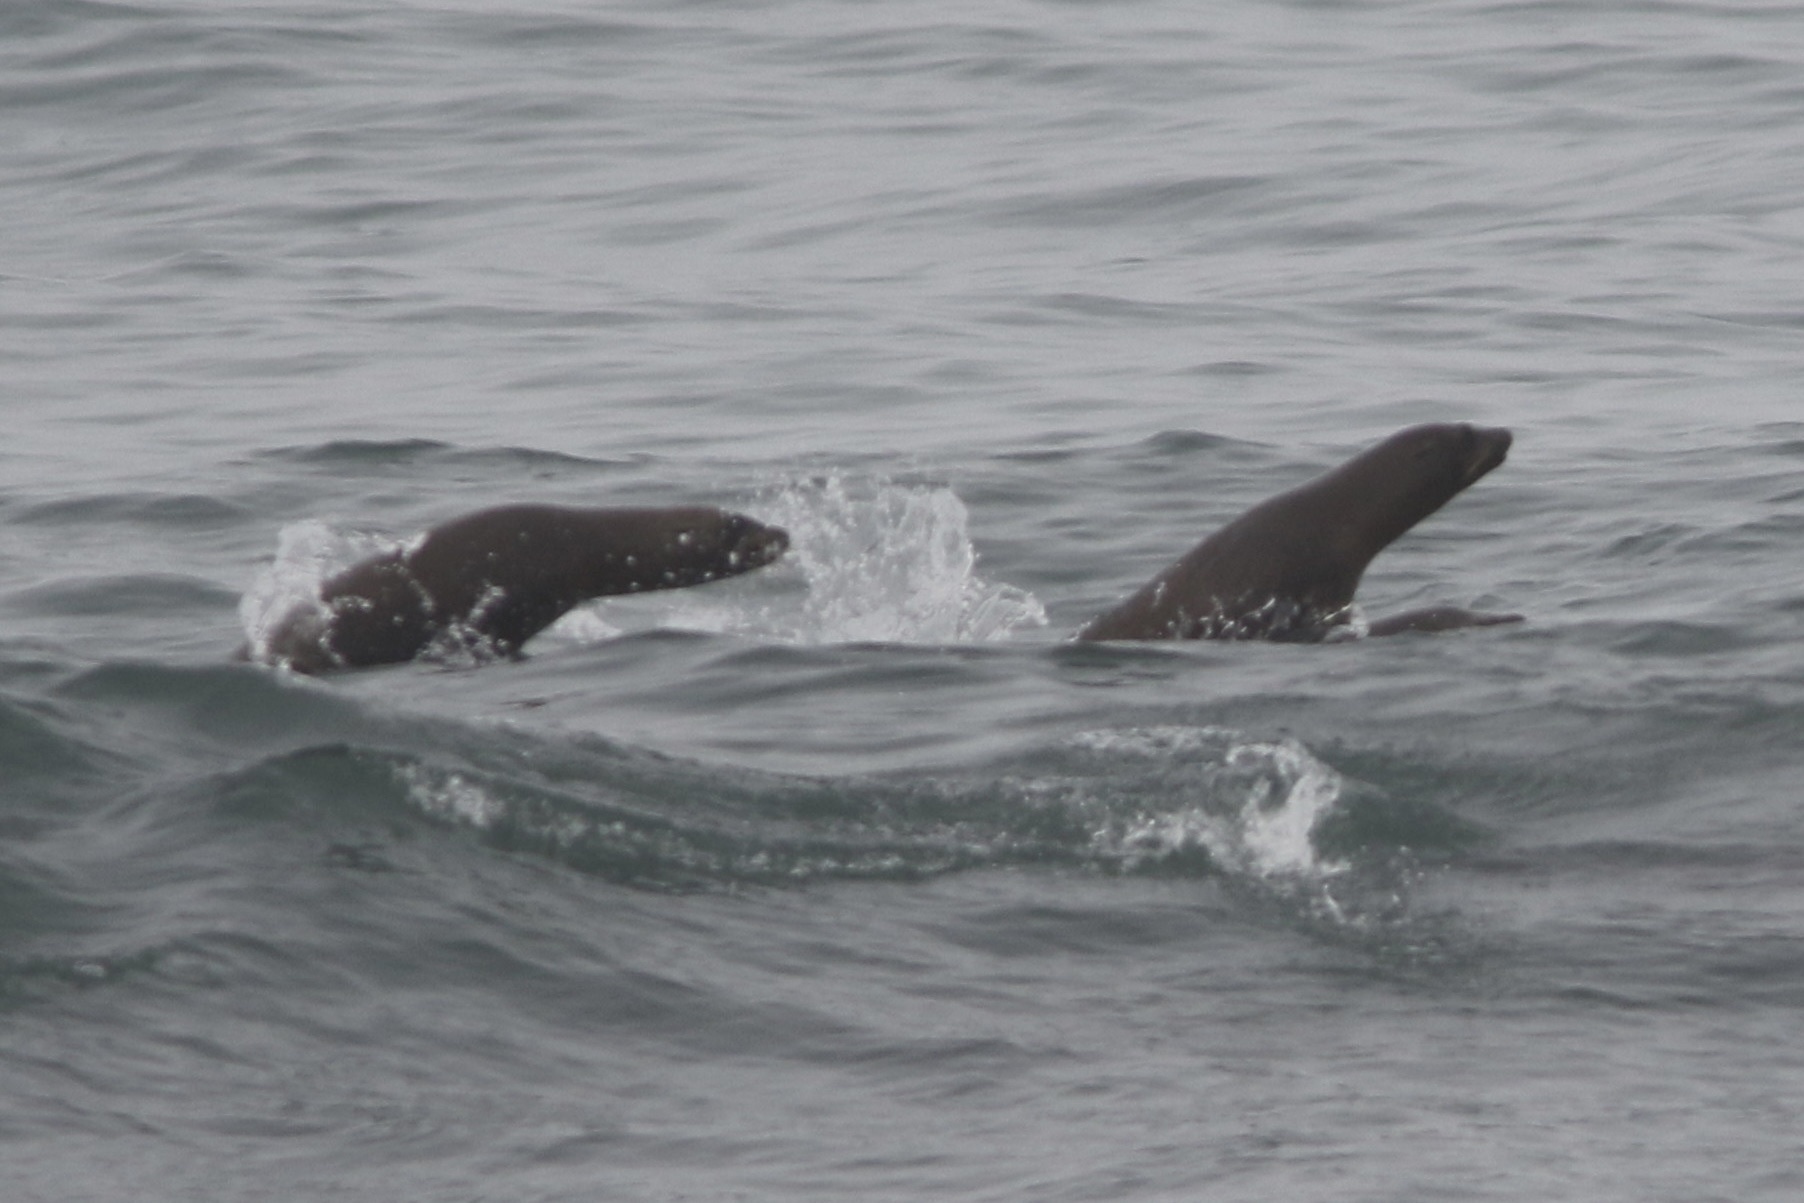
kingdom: Animalia
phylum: Chordata
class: Mammalia
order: Carnivora
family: Otariidae
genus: Zalophus
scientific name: Zalophus californianus
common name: California sea lion
